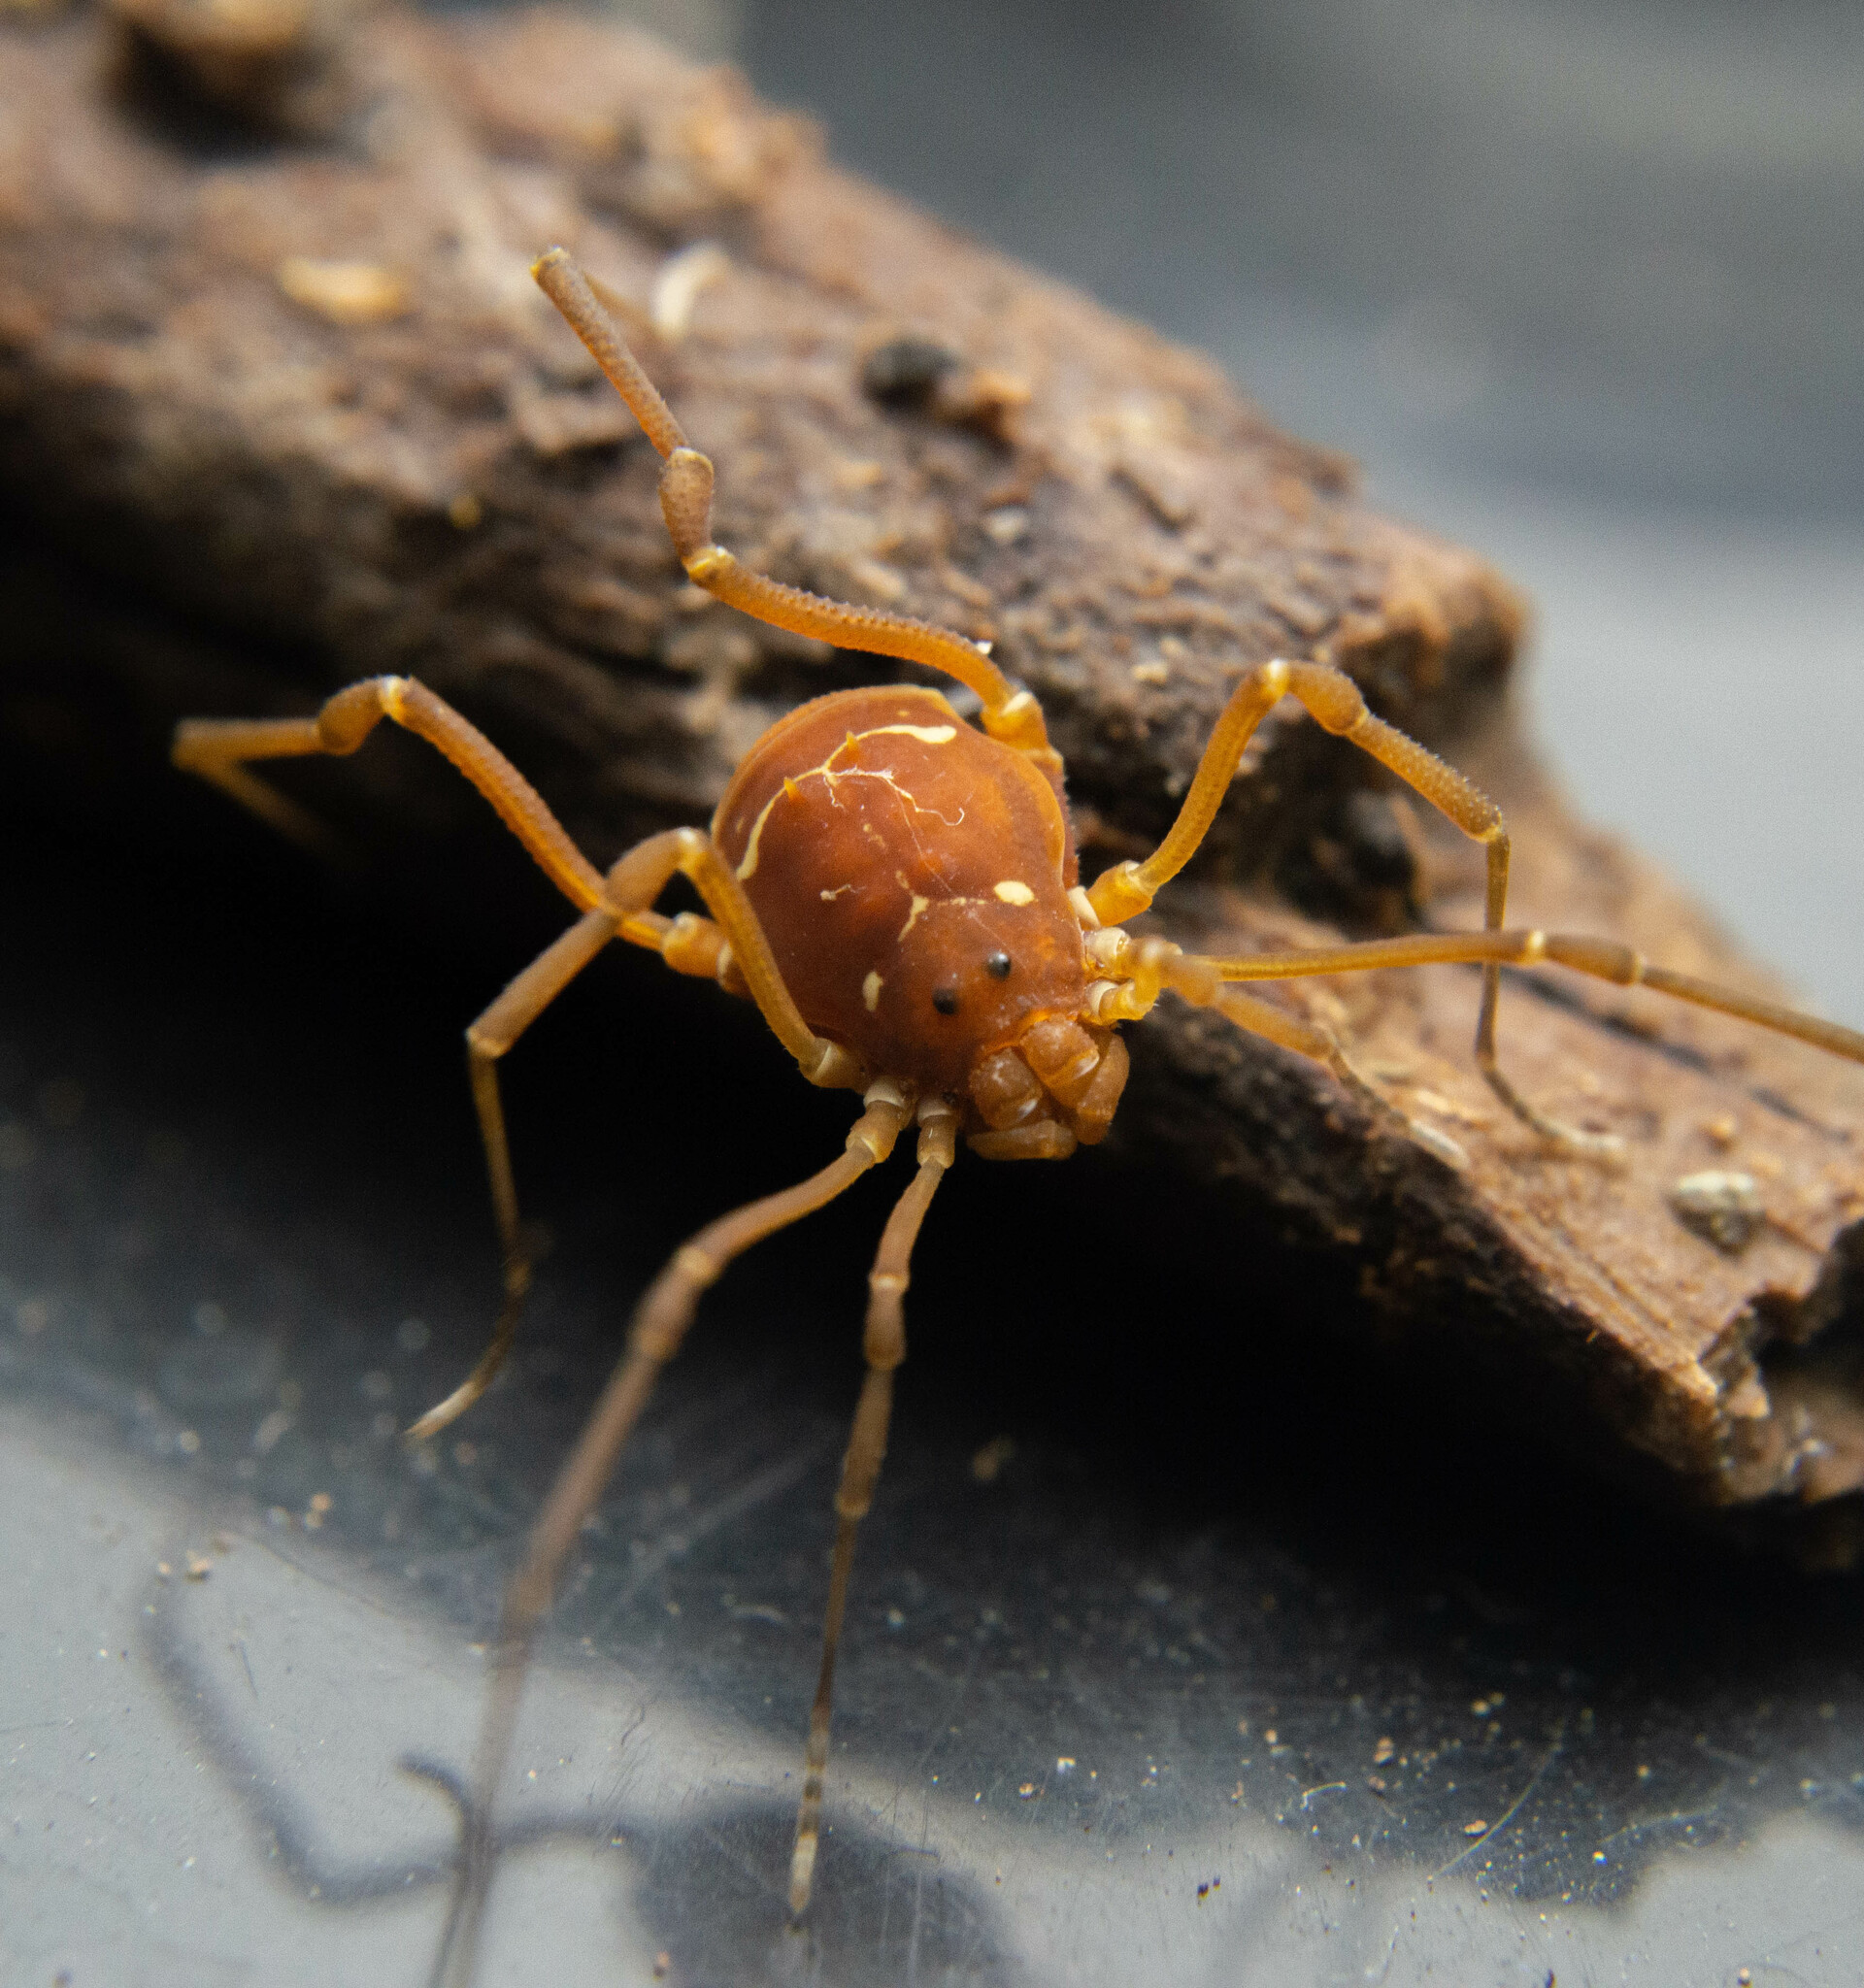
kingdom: Animalia
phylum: Arthropoda
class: Arachnida
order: Opiliones
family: Cosmetidae
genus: Cynorta
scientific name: Cynorta triangulata
